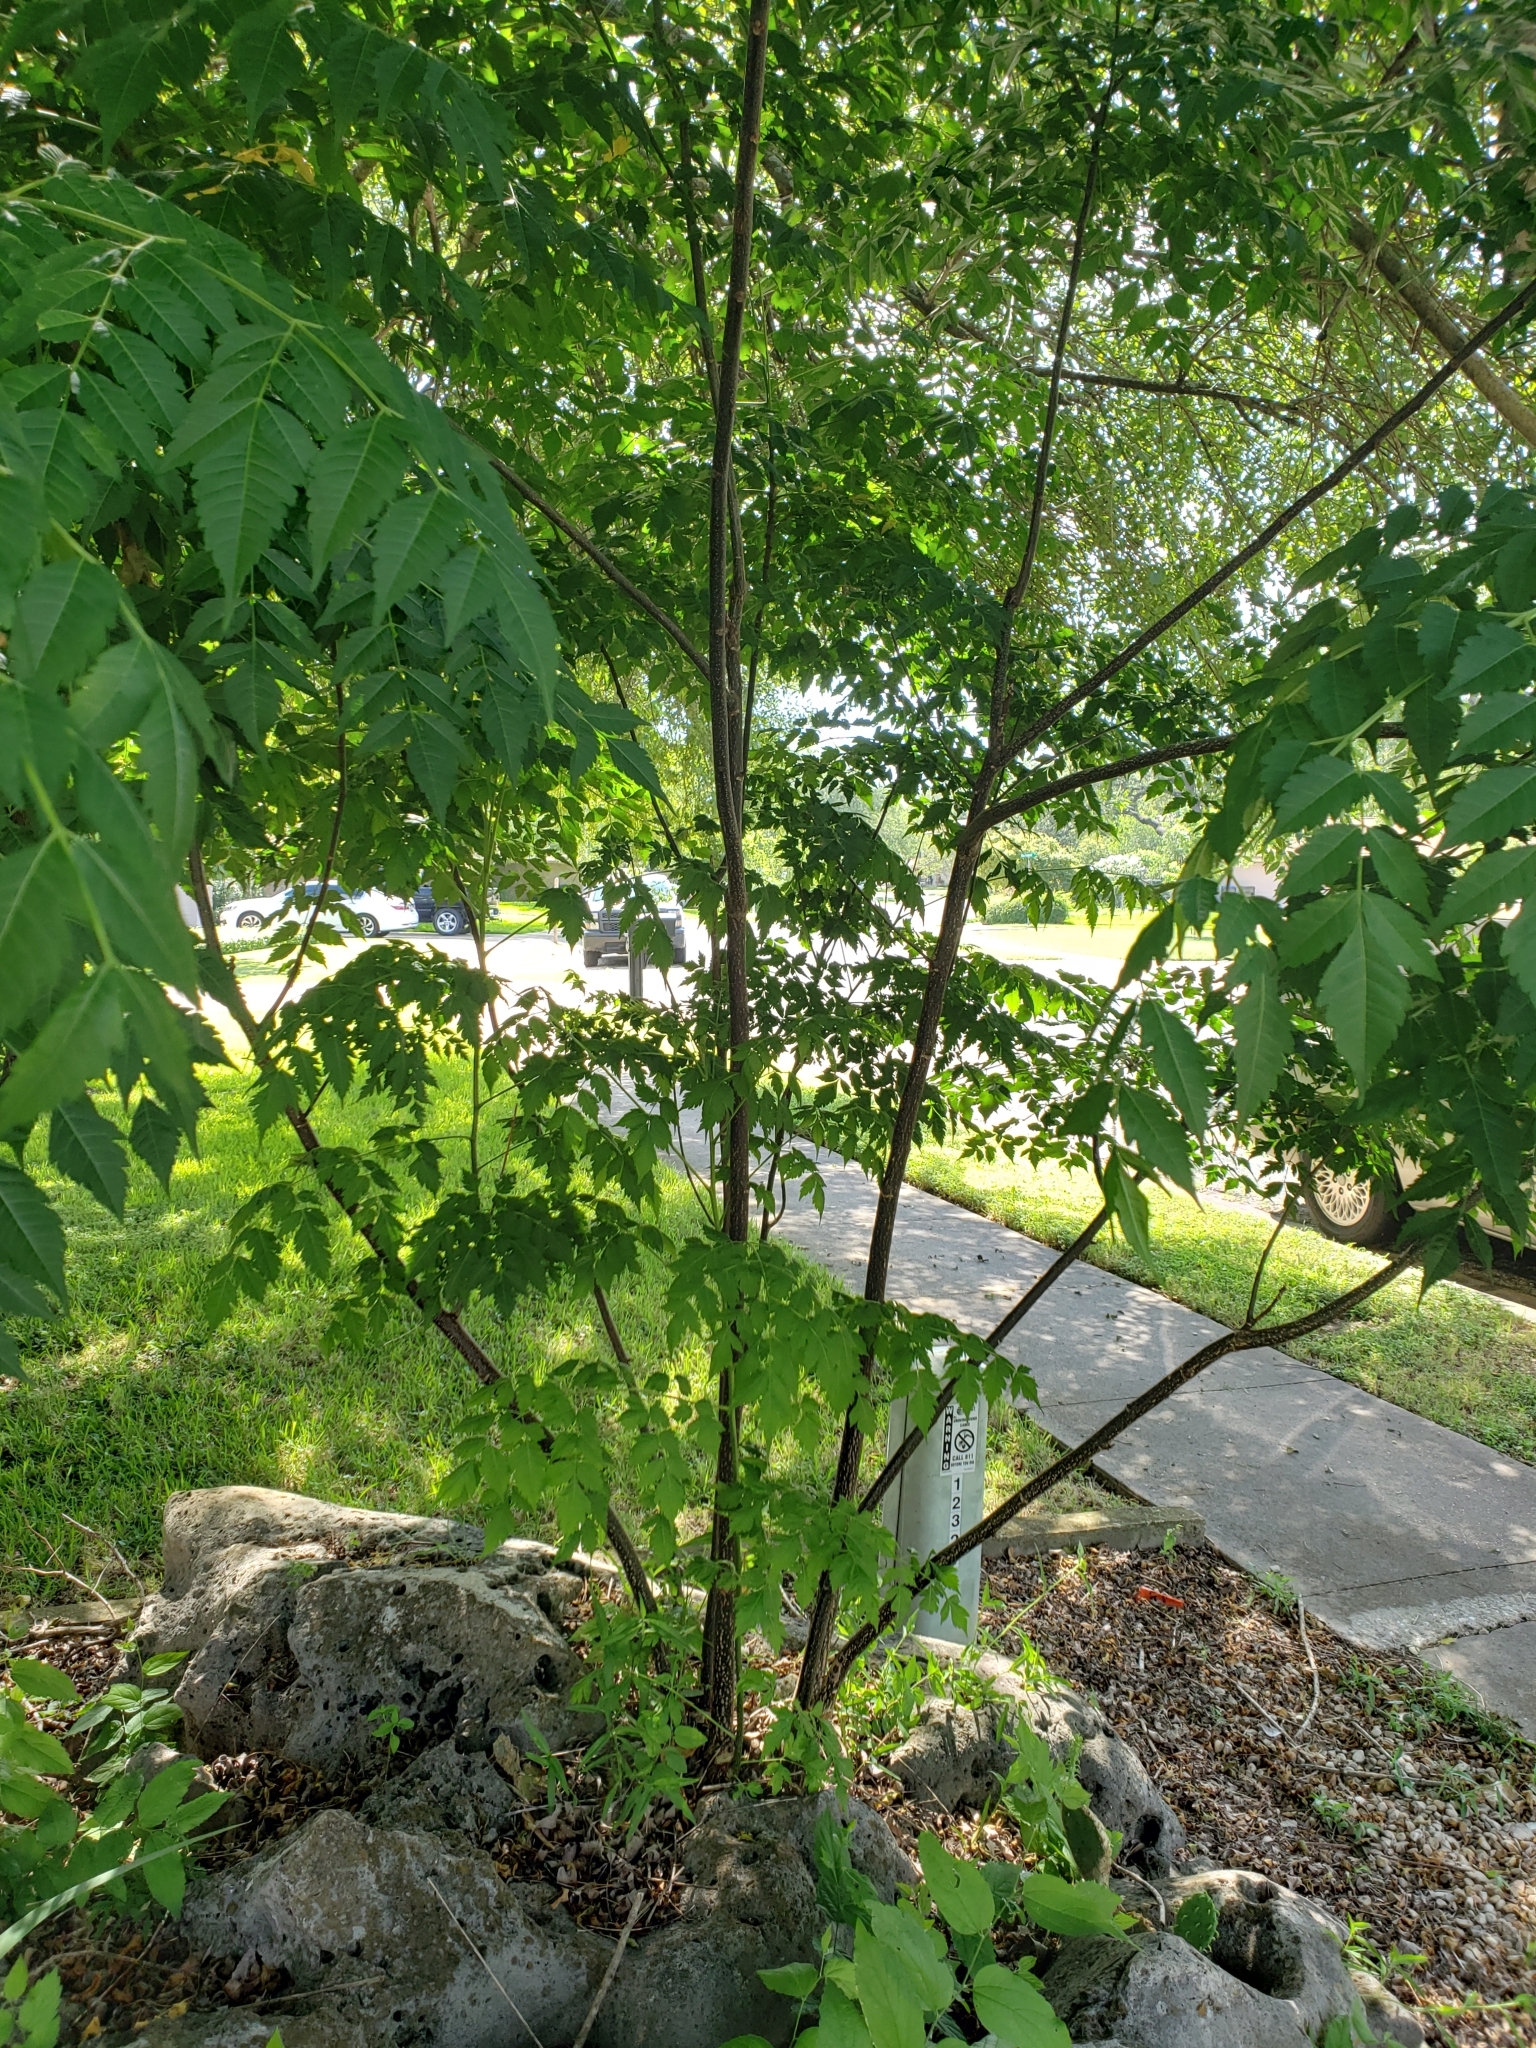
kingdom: Plantae
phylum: Tracheophyta
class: Magnoliopsida
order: Sapindales
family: Meliaceae
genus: Melia
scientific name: Melia azedarach
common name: Chinaberrytree
